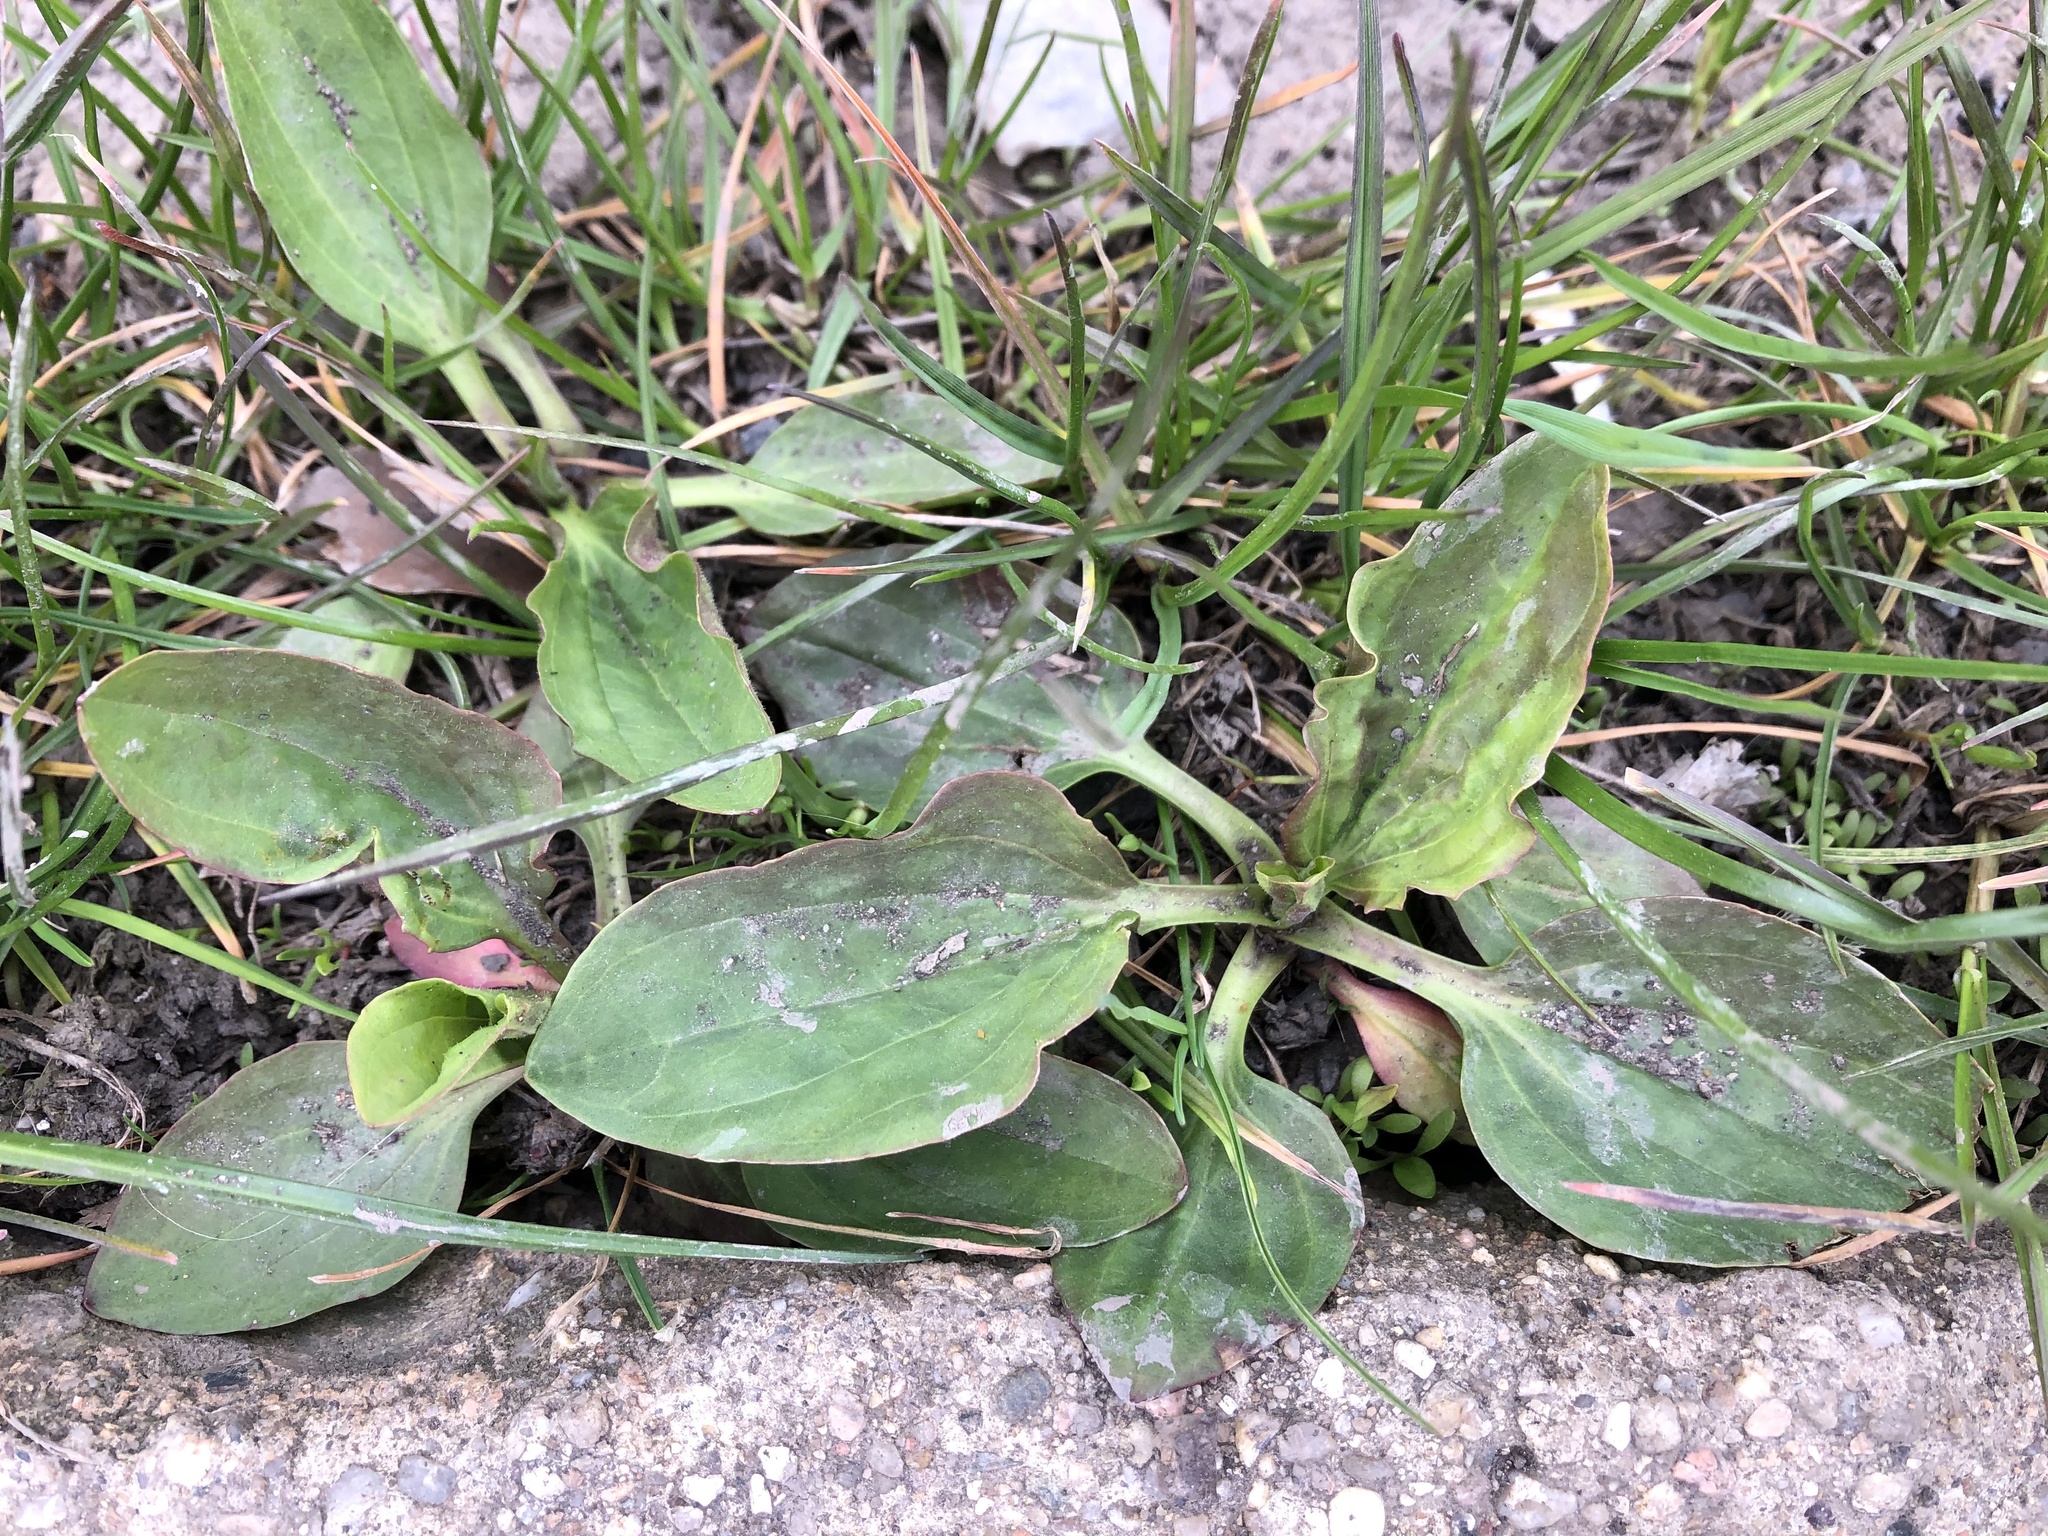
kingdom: Plantae
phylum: Tracheophyta
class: Magnoliopsida
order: Lamiales
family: Plantaginaceae
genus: Plantago
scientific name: Plantago major
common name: Common plantain
